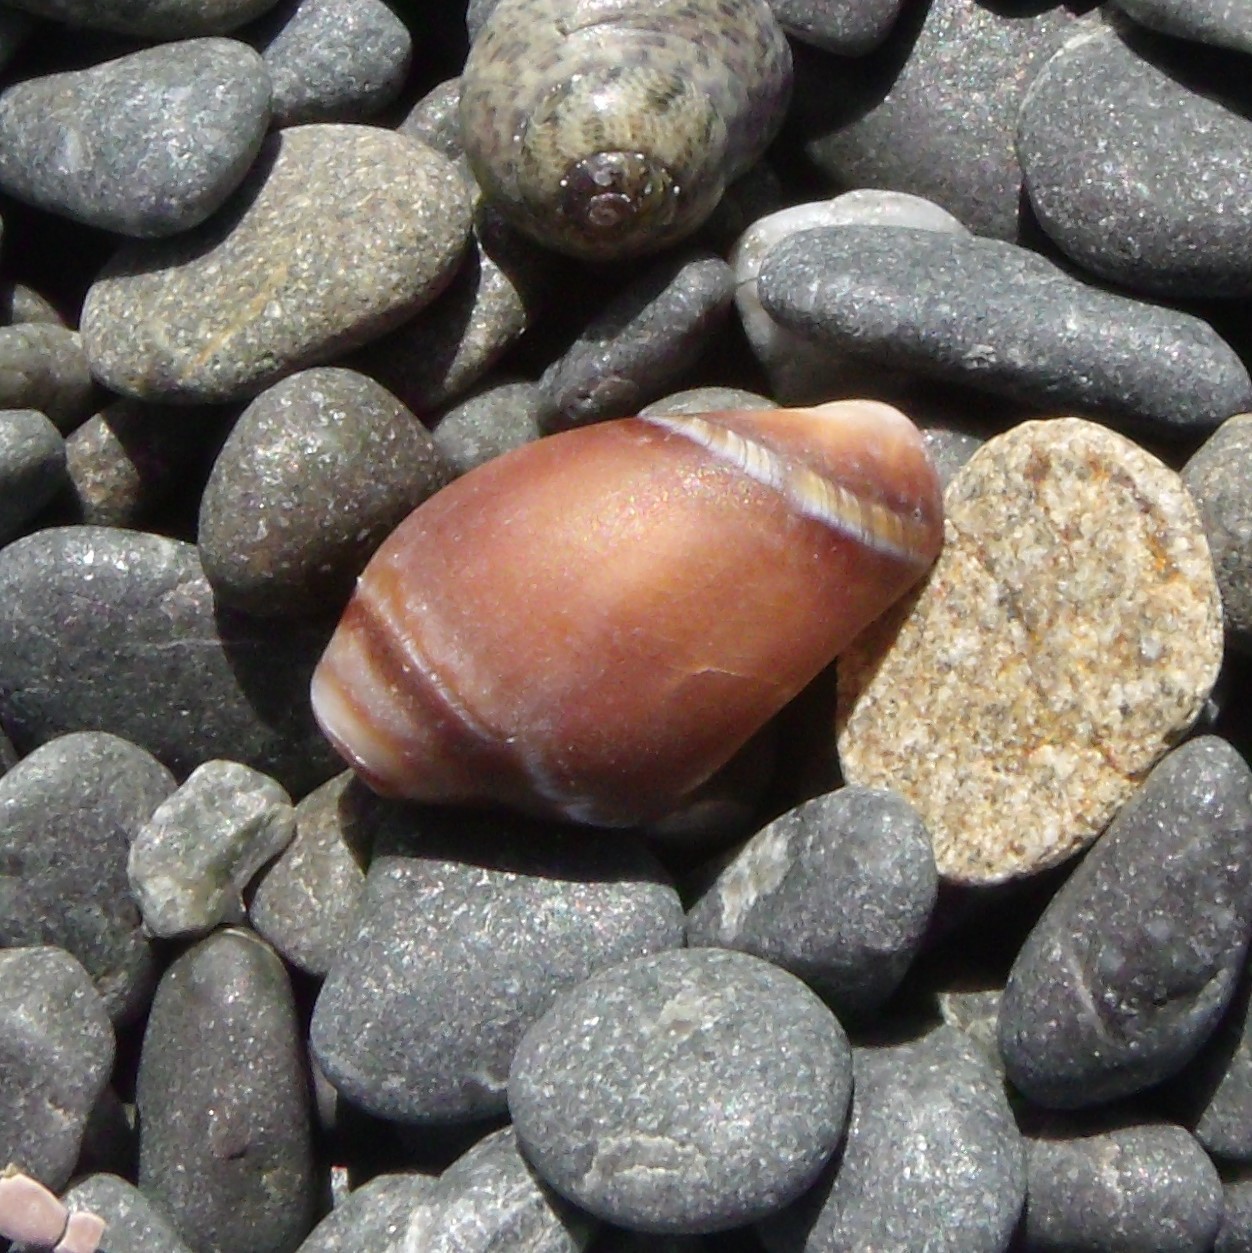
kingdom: Animalia
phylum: Mollusca
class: Gastropoda
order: Neogastropoda
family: Ancillariidae
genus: Amalda
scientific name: Amalda australis
